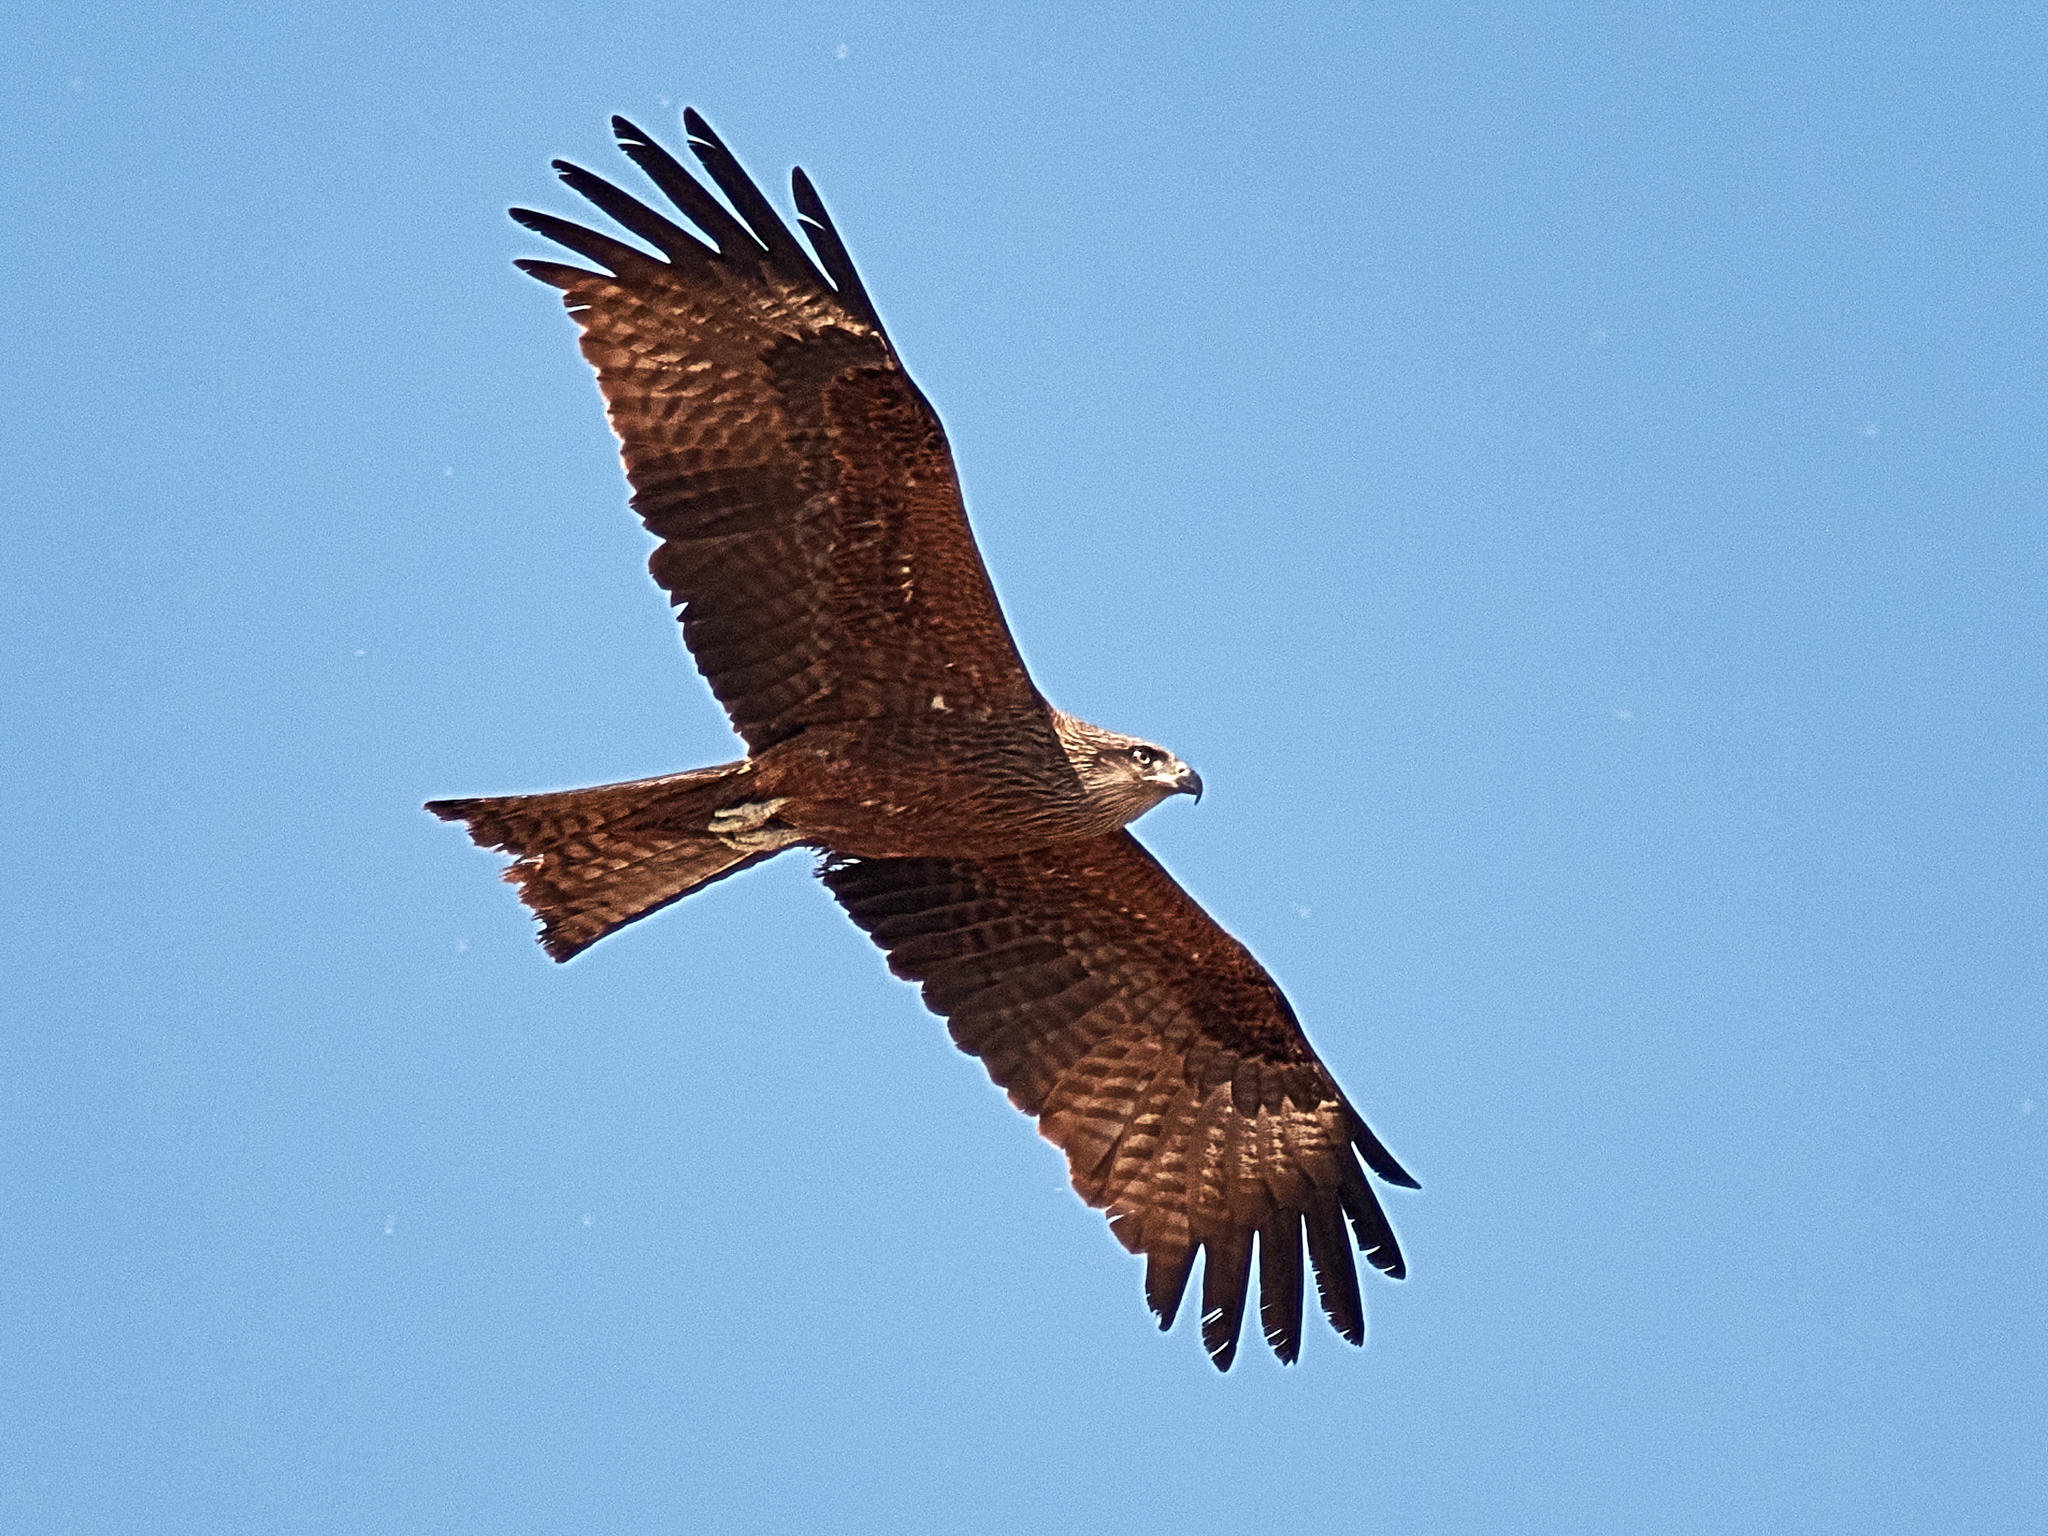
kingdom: Animalia
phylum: Chordata
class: Aves
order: Accipitriformes
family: Accipitridae
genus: Milvus
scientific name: Milvus migrans
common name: Black kite
